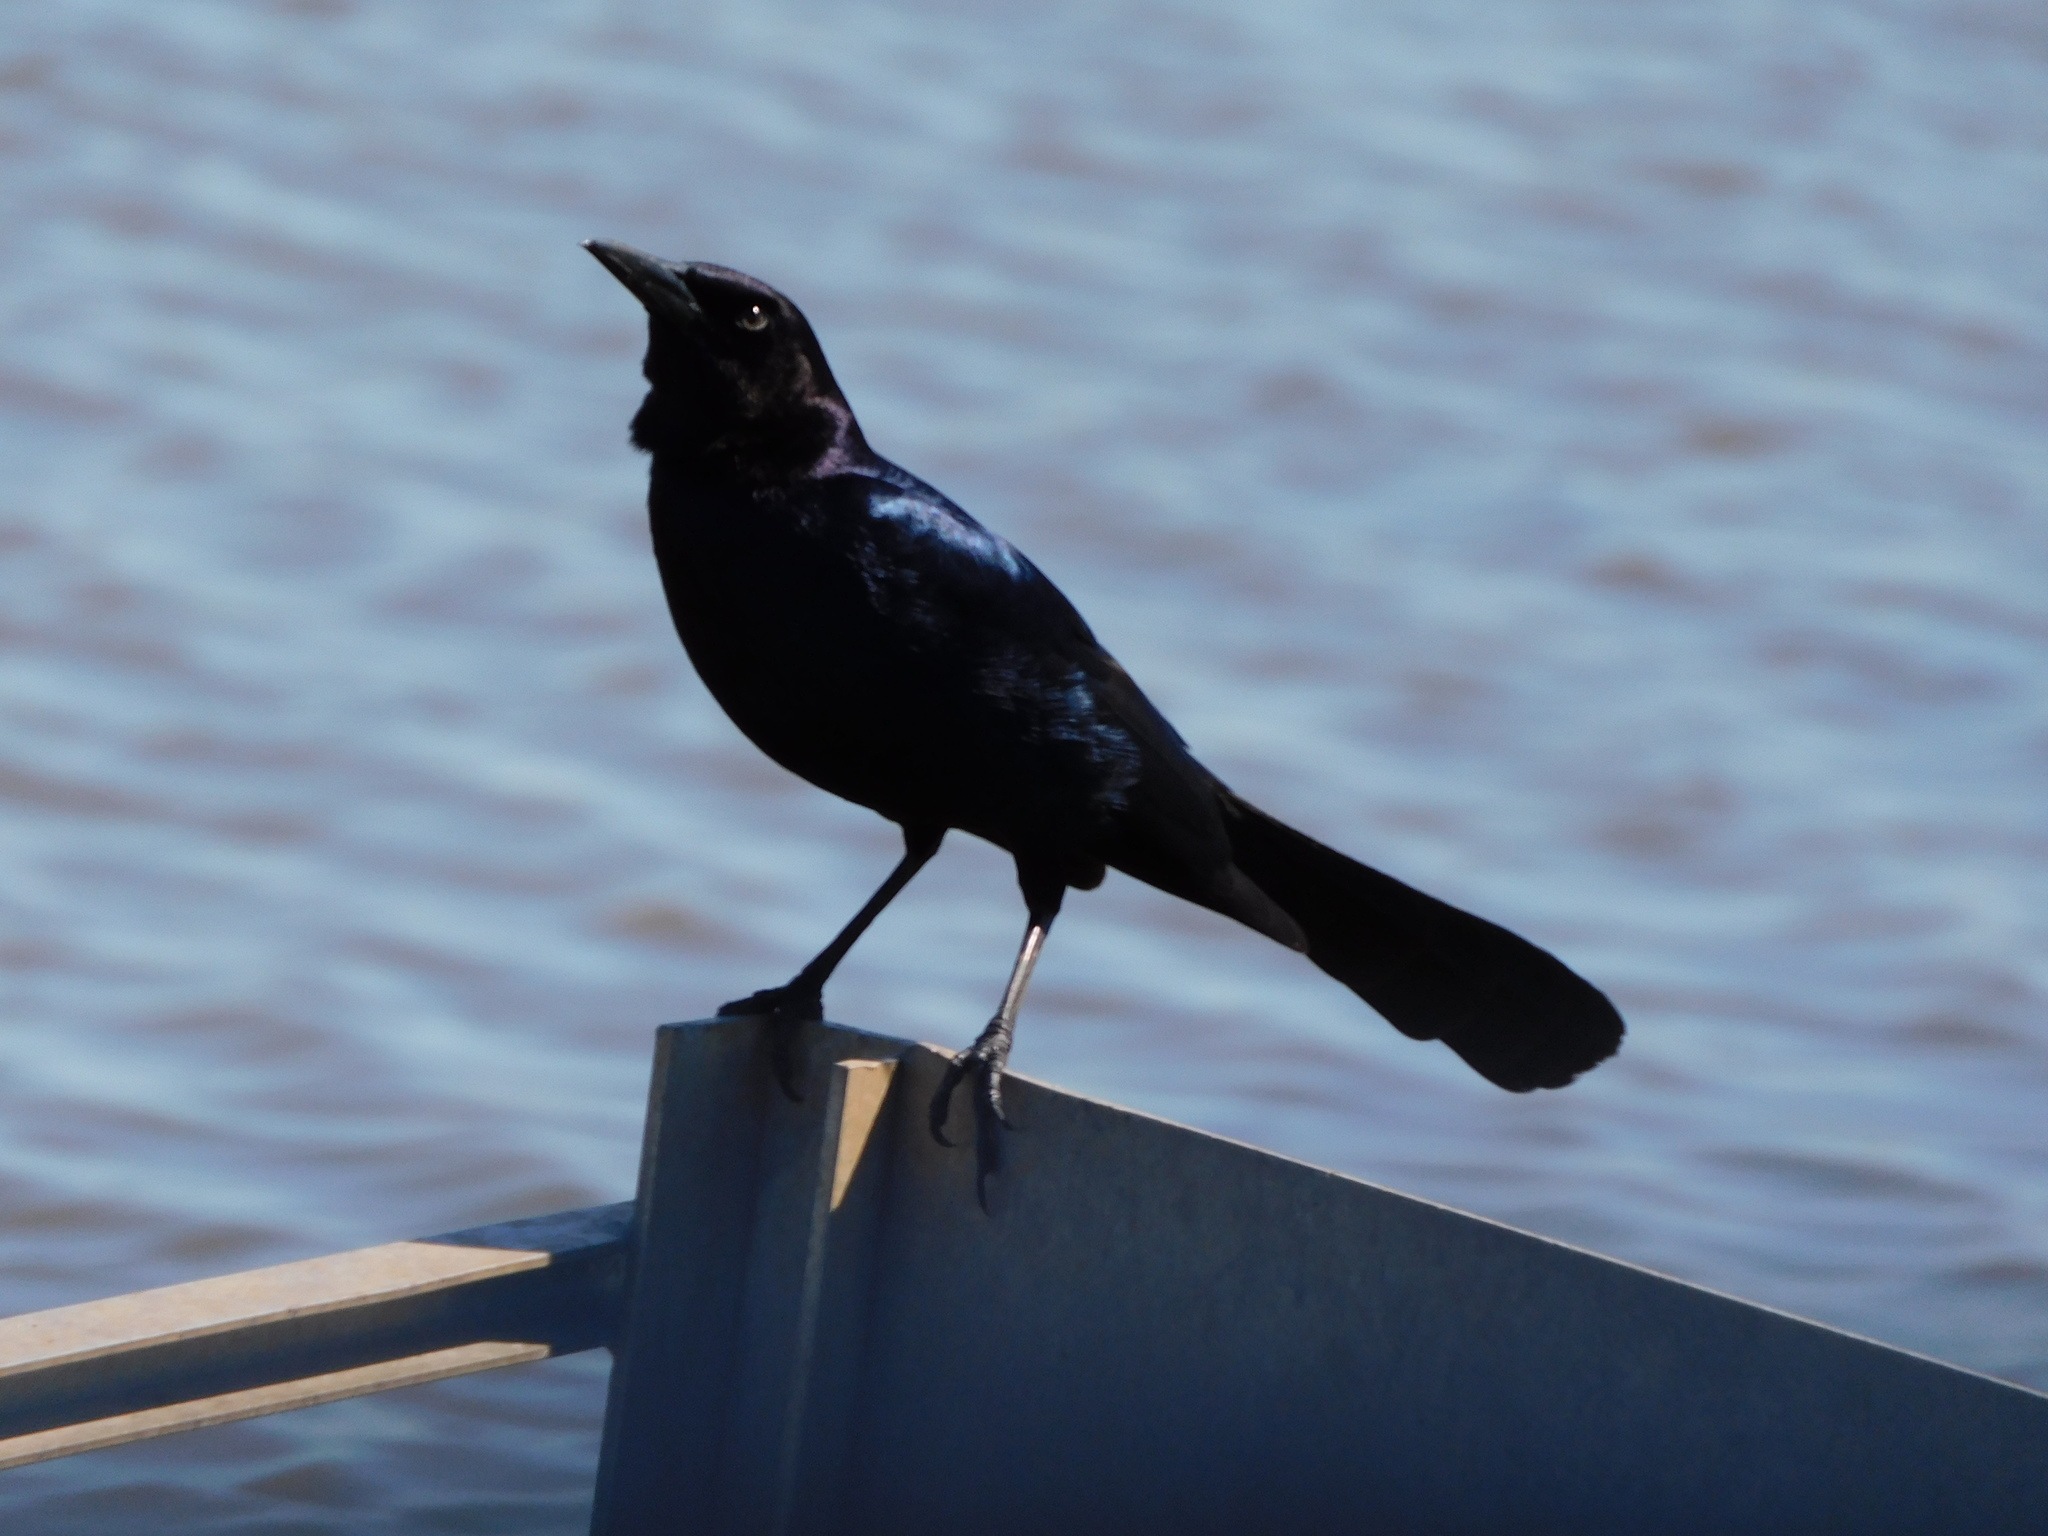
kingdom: Animalia
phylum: Chordata
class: Aves
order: Passeriformes
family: Icteridae
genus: Quiscalus
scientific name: Quiscalus major
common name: Boat-tailed grackle
